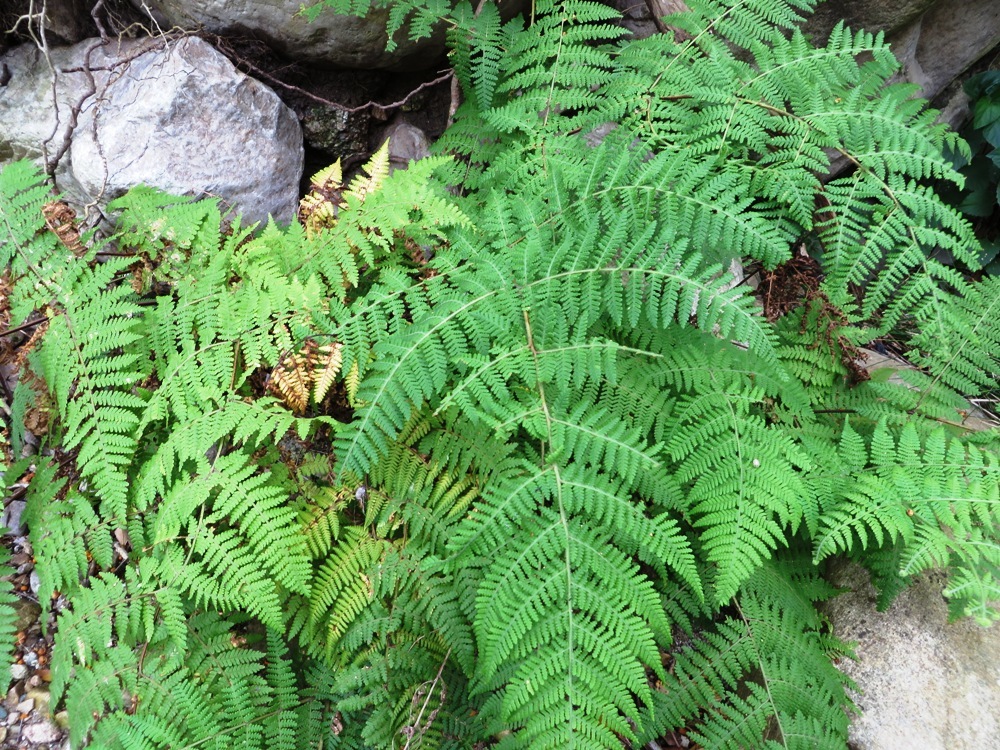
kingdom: Plantae
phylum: Tracheophyta
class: Polypodiopsida
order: Polypodiales
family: Dennstaedtiaceae
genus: Hypolepis
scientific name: Hypolepis sparsisora
